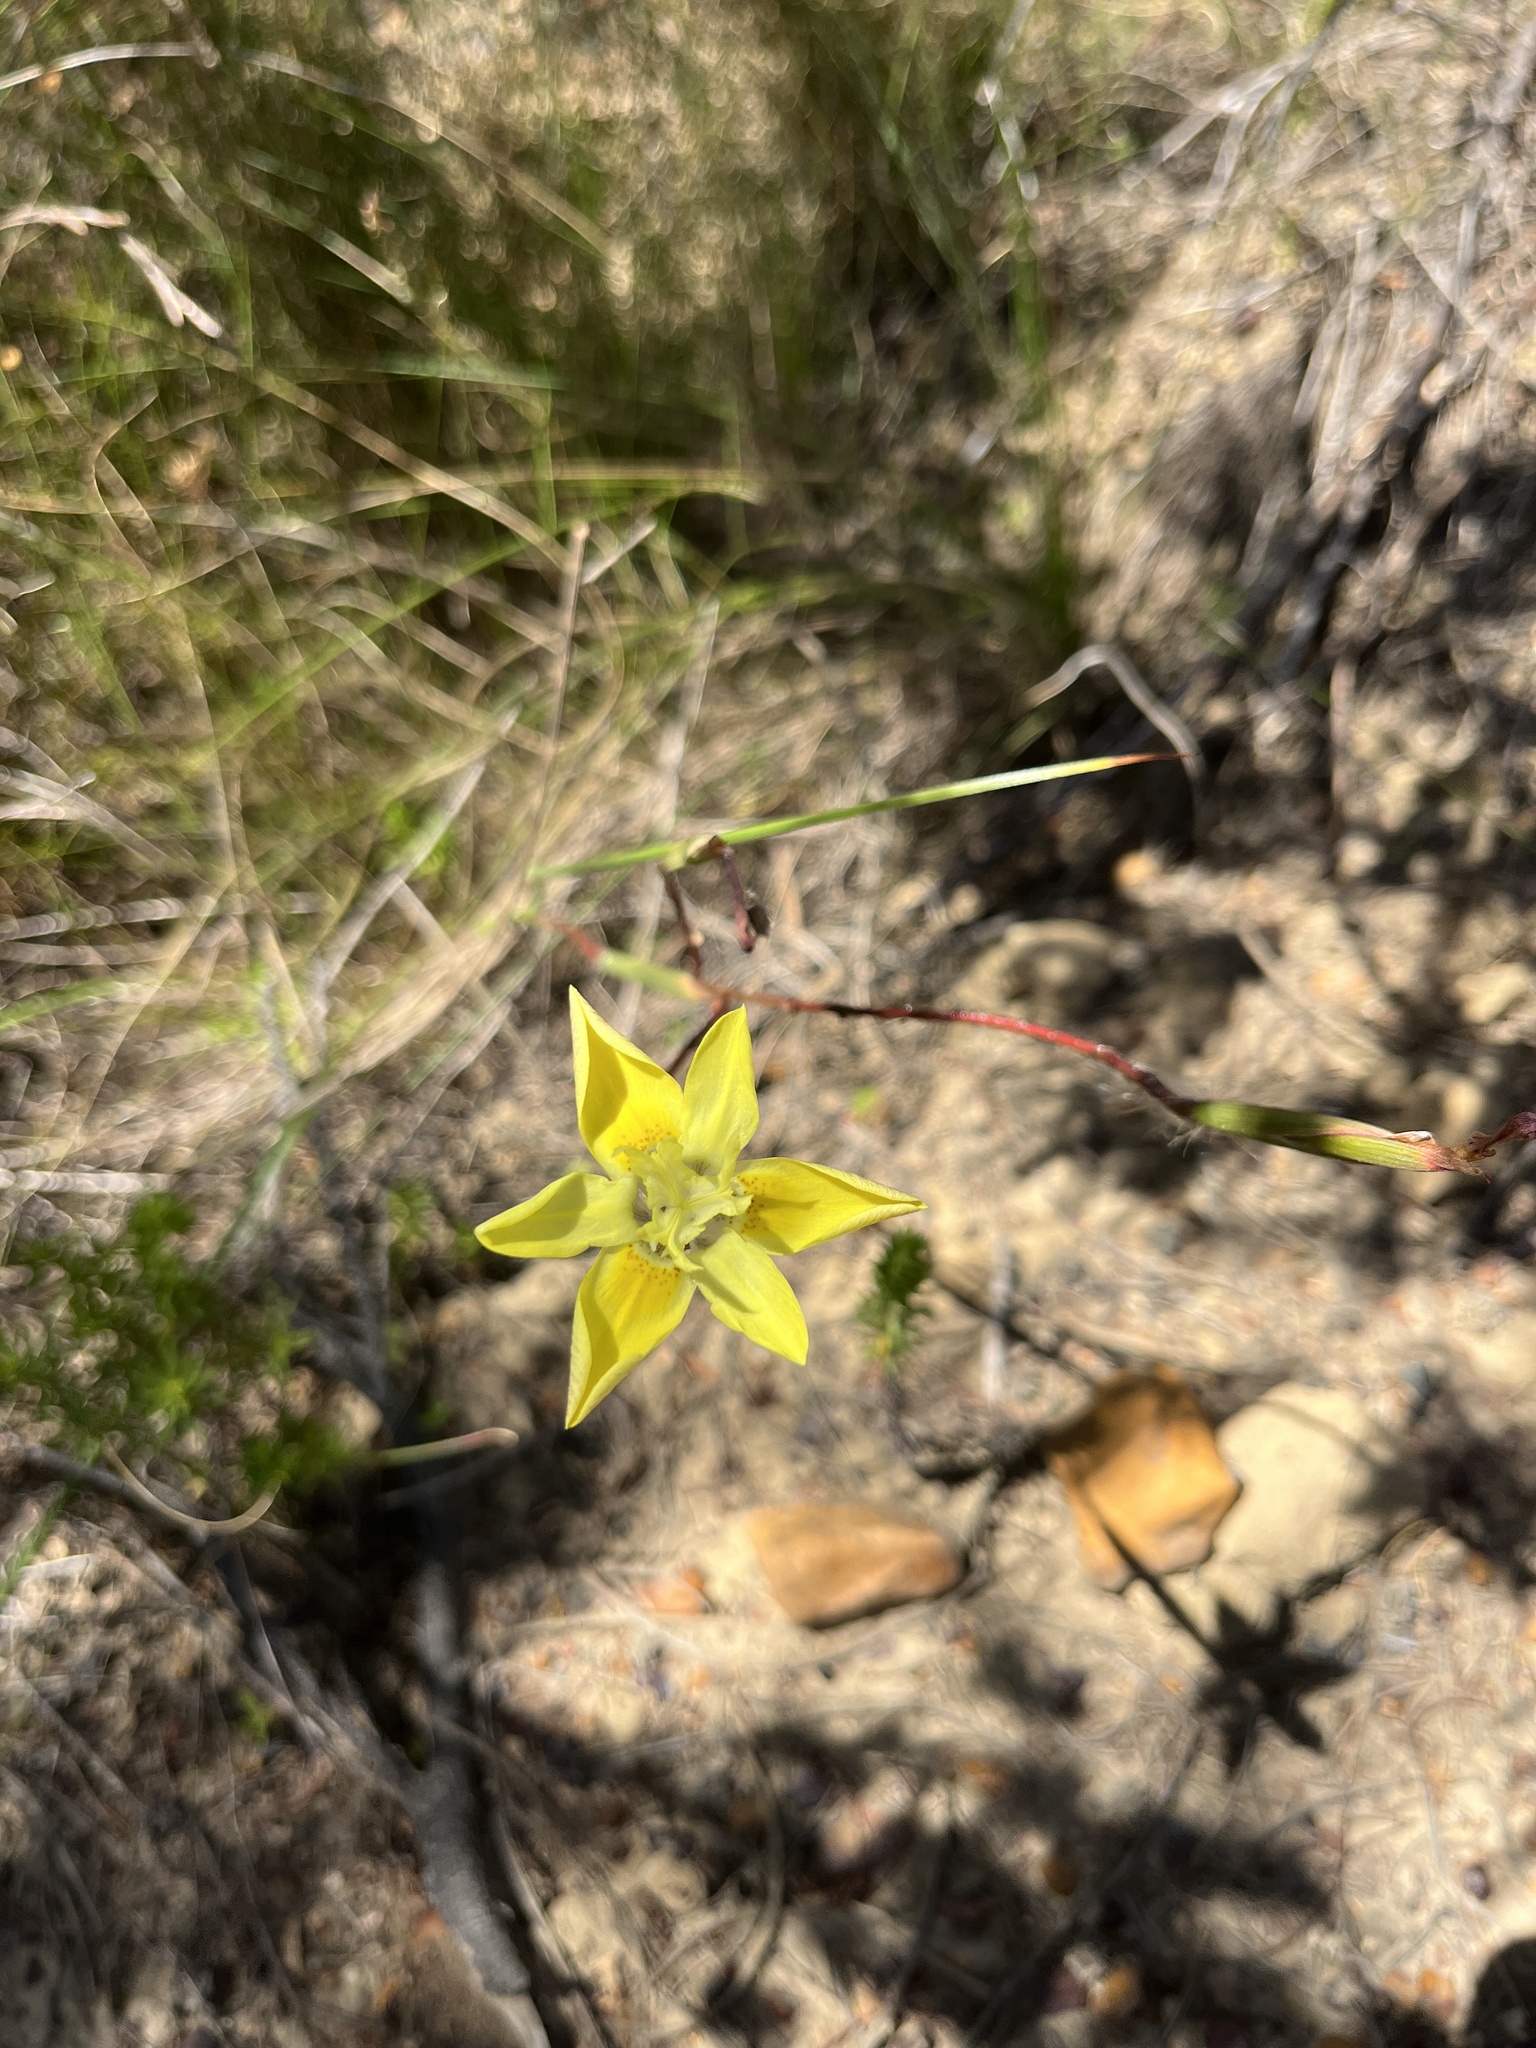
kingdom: Plantae
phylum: Tracheophyta
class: Liliopsida
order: Asparagales
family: Iridaceae
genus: Moraea
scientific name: Moraea bituminosa
